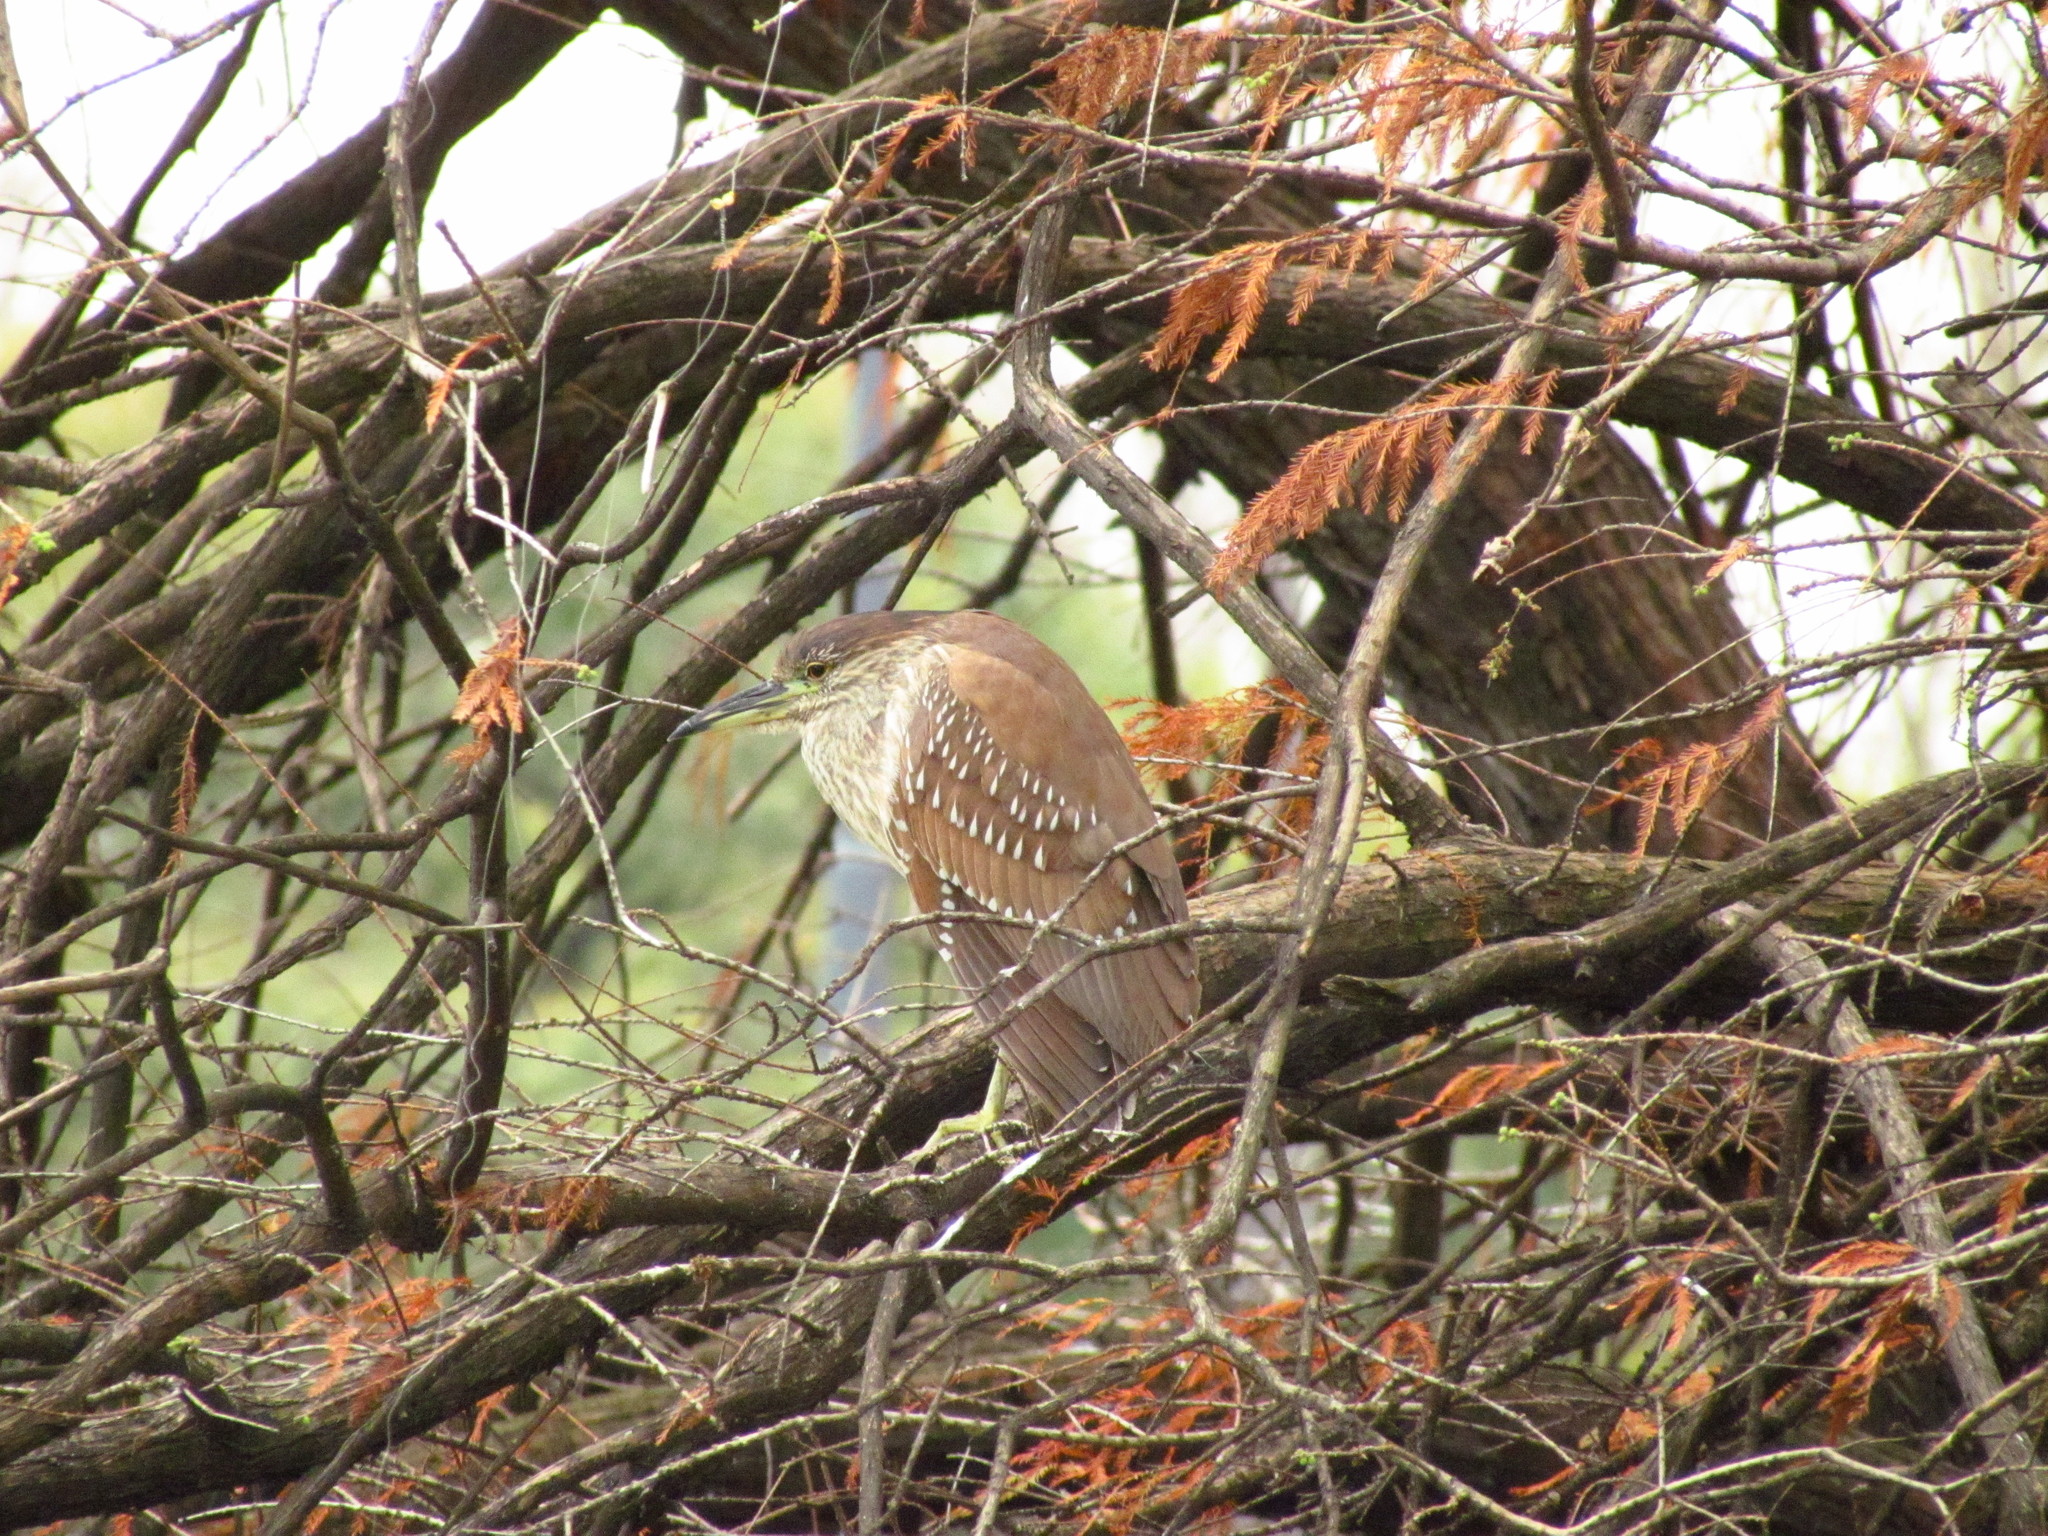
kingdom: Animalia
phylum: Chordata
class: Aves
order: Pelecaniformes
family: Ardeidae
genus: Nycticorax
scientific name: Nycticorax nycticorax
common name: Black-crowned night heron
